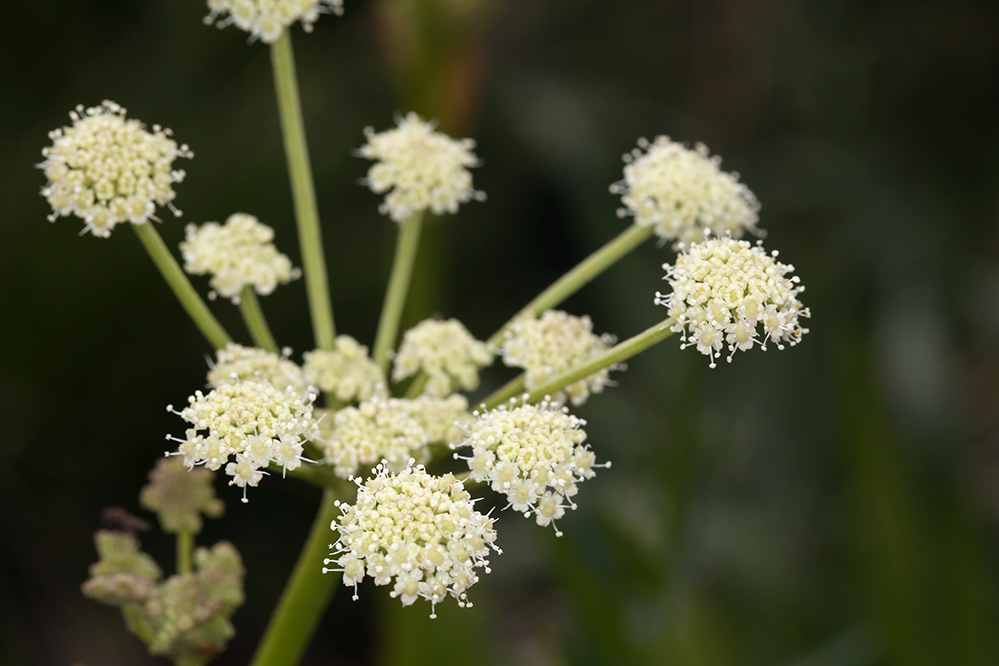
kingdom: Plantae
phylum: Tracheophyta
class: Magnoliopsida
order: Apiales
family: Apiaceae
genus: Angelica
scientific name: Angelica kingii
